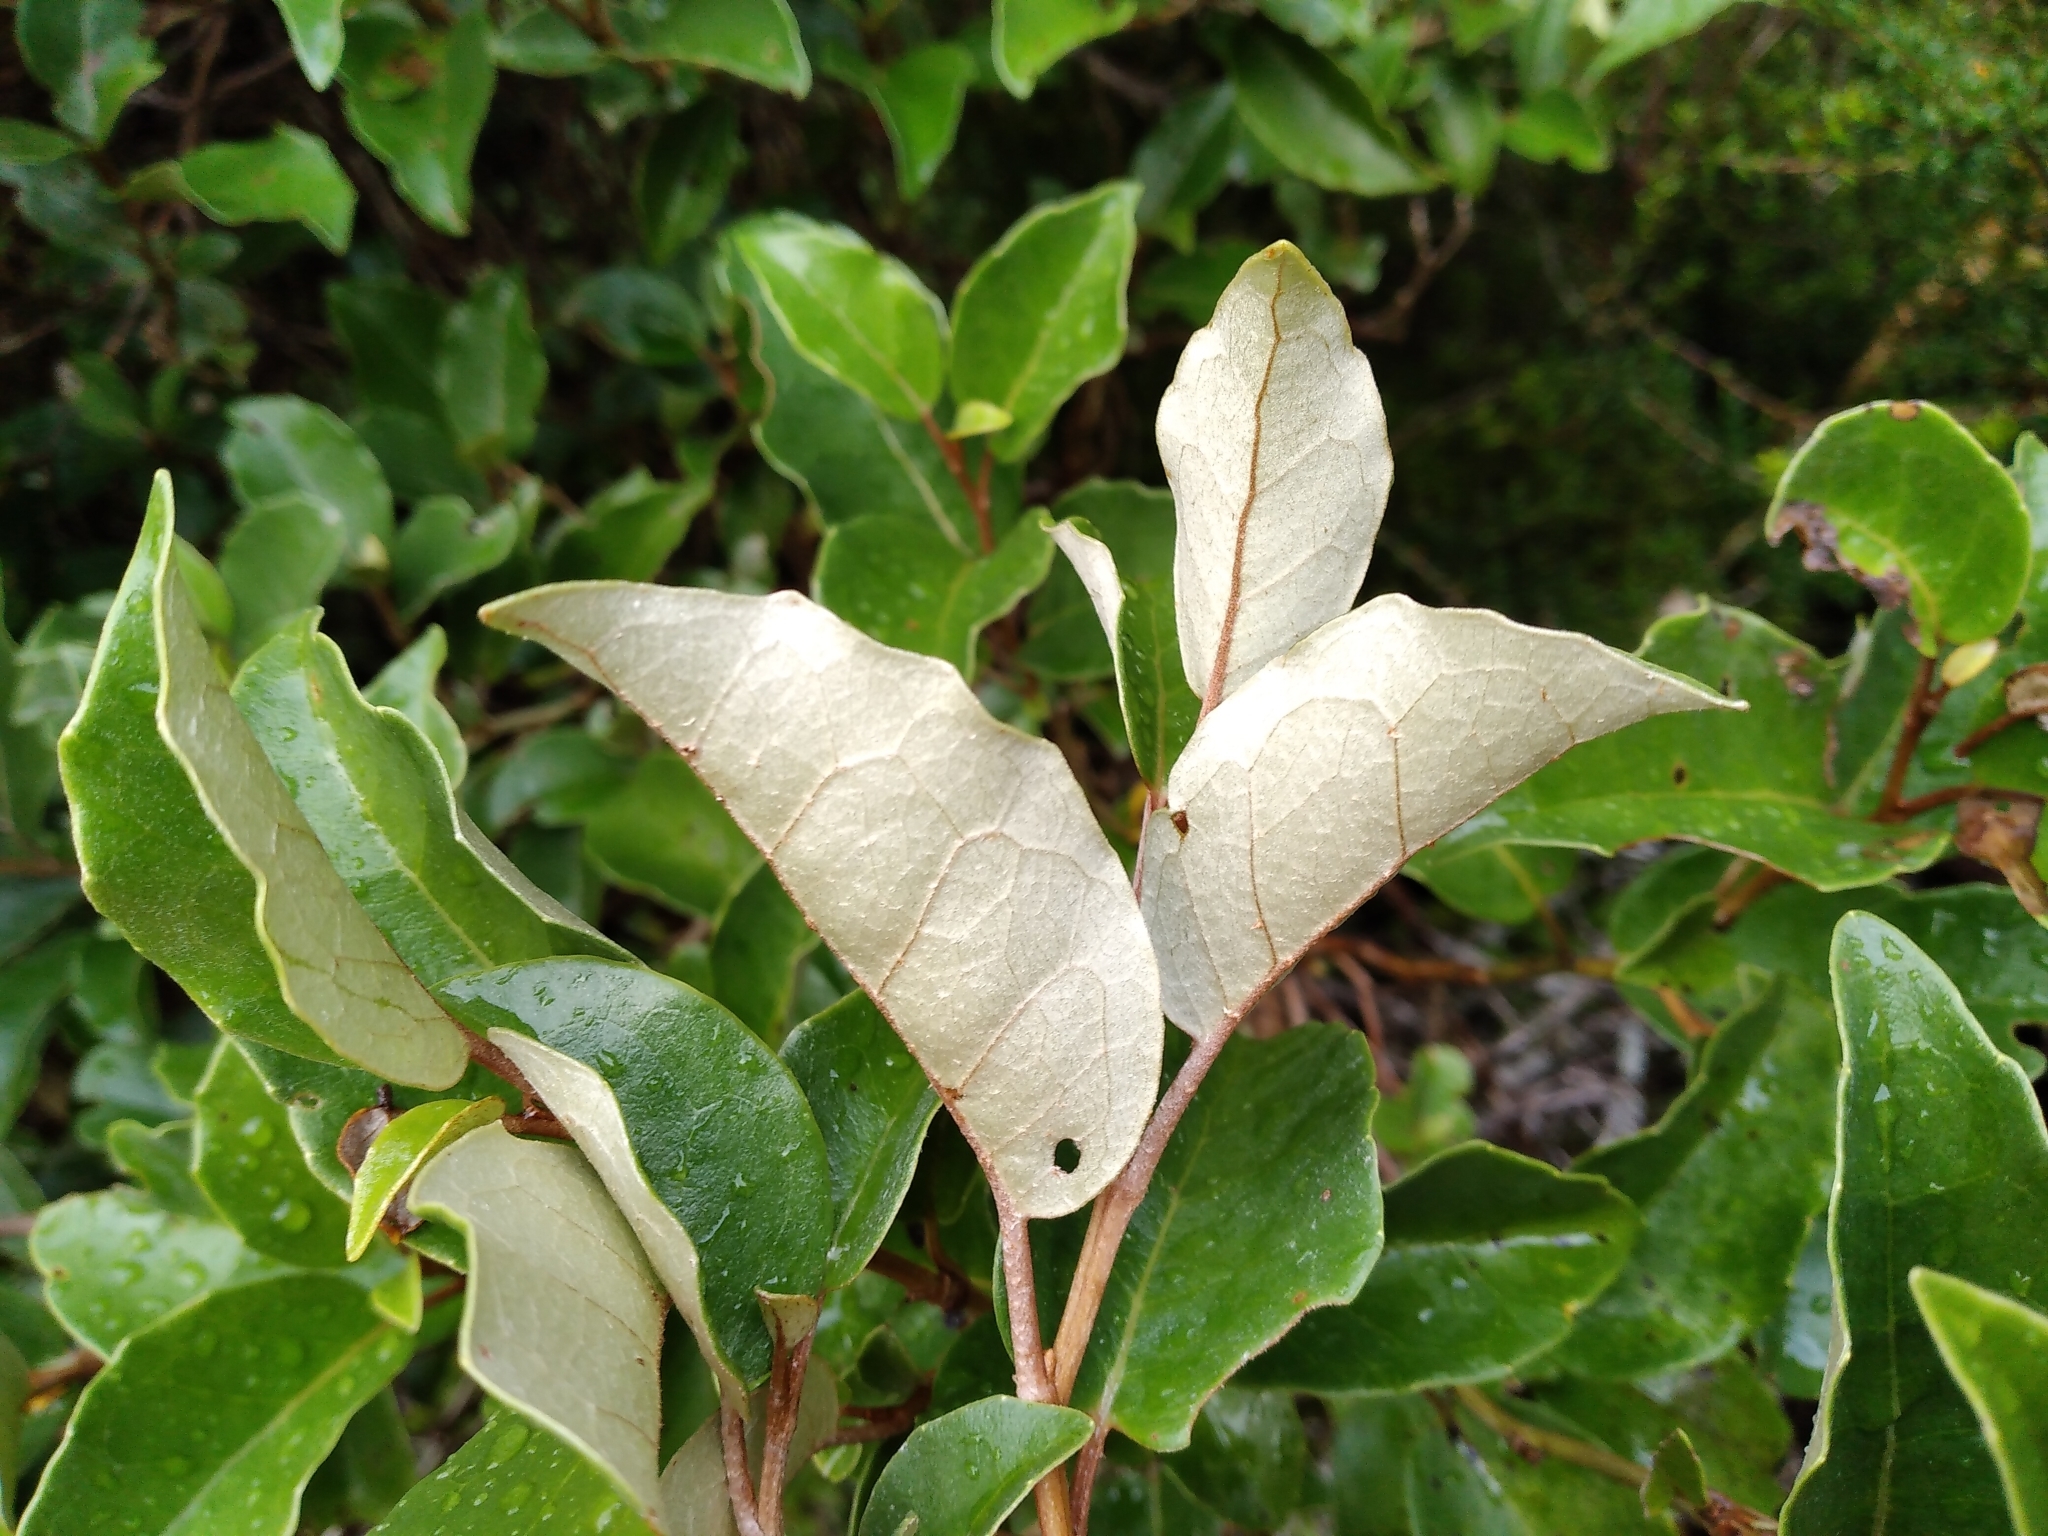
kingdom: Plantae
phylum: Tracheophyta
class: Magnoliopsida
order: Asterales
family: Asteraceae
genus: Olearia
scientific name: Olearia arborescens
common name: Glossy tree daisy
